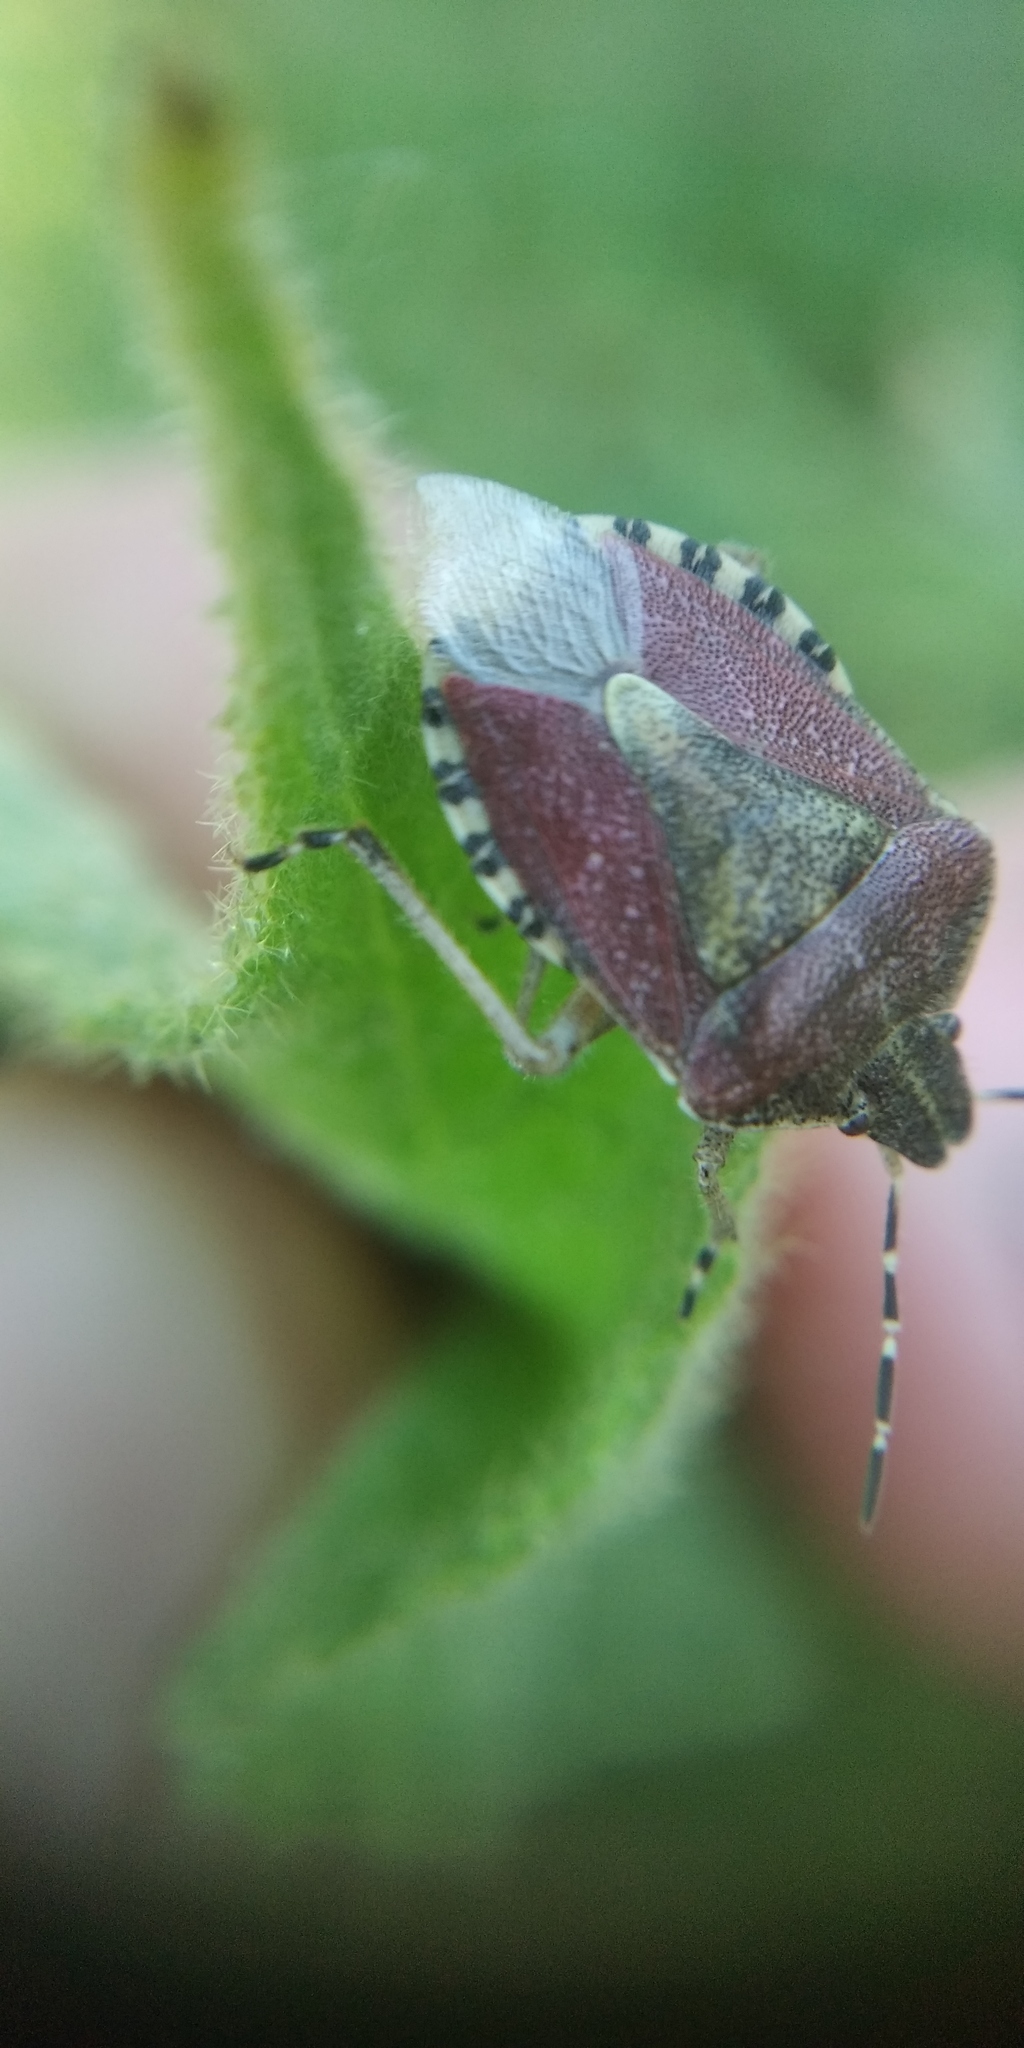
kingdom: Animalia
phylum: Arthropoda
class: Insecta
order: Hemiptera
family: Pentatomidae
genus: Dolycoris
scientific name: Dolycoris baccarum
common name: Sloe bug
